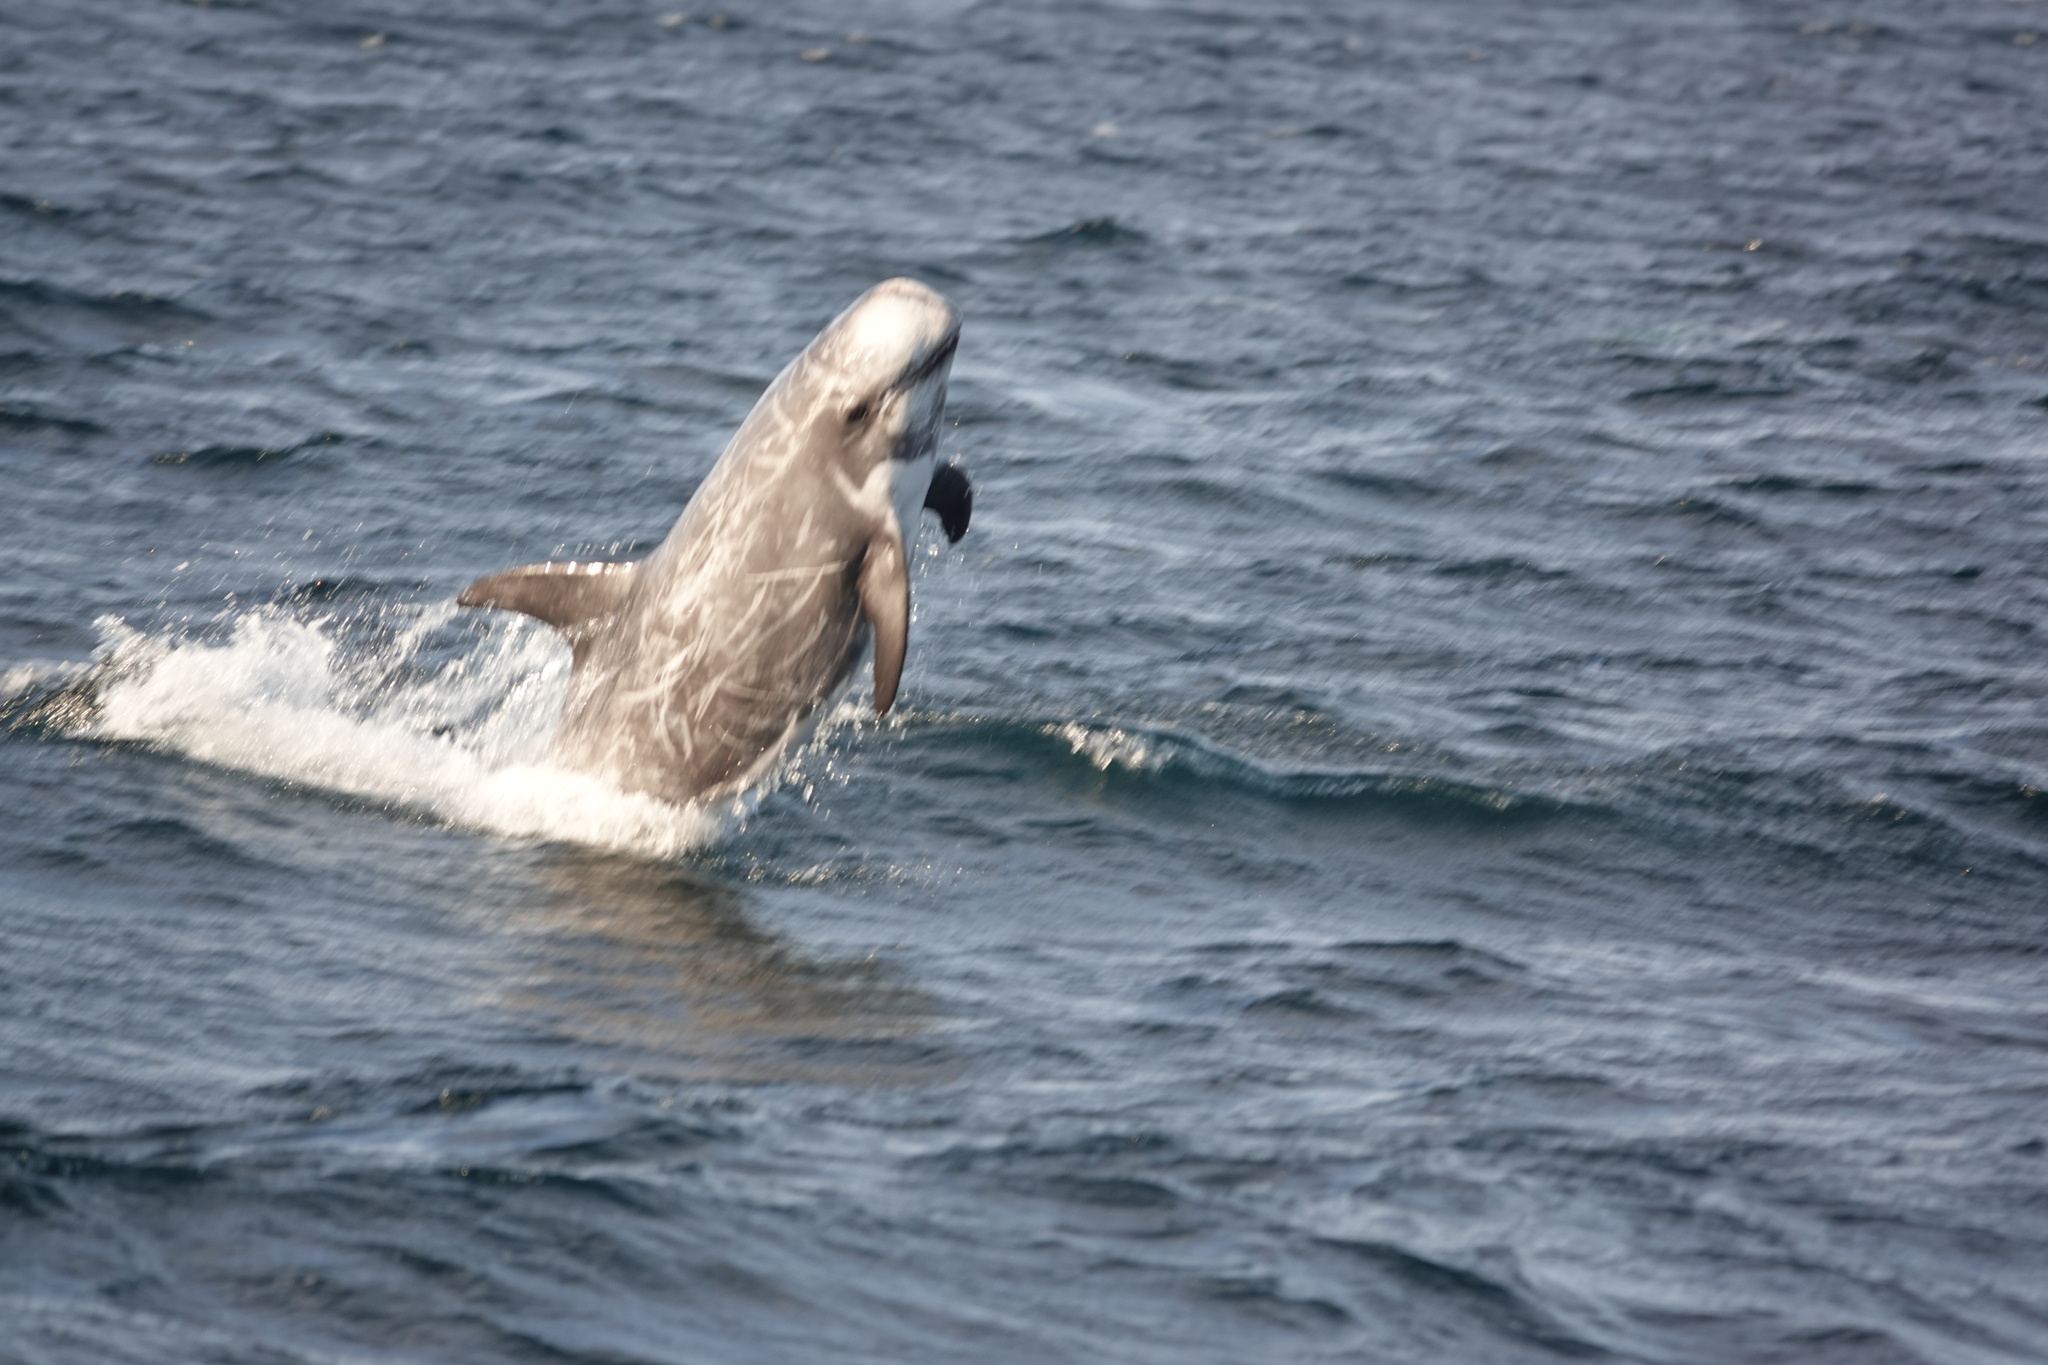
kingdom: Animalia
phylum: Chordata
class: Mammalia
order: Cetacea
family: Delphinidae
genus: Grampus
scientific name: Grampus griseus
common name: Risso's dolphin
